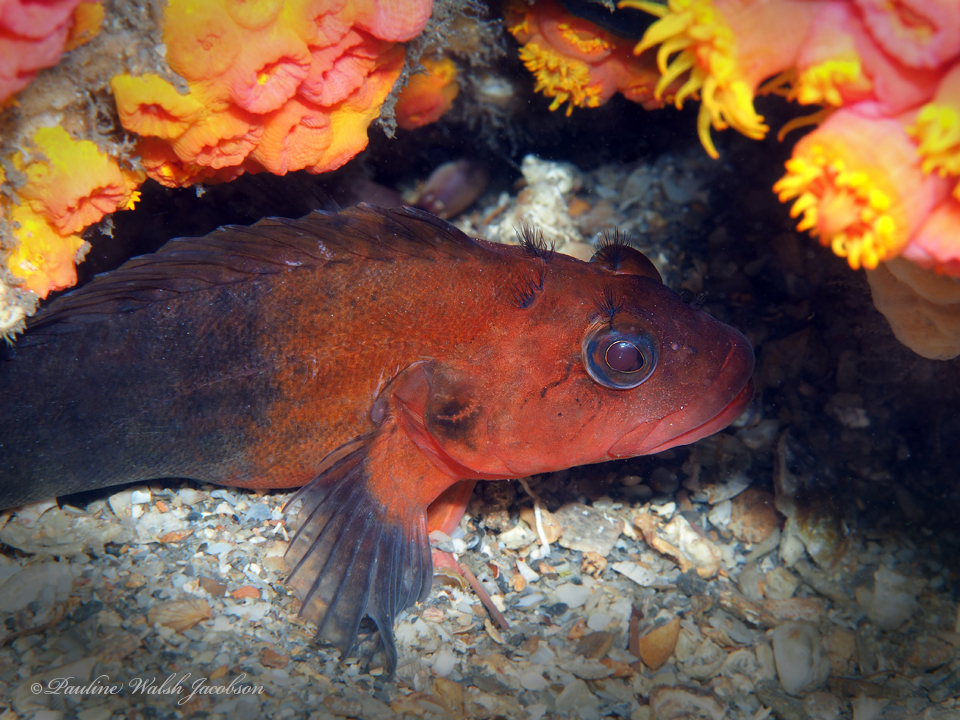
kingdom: Animalia
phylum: Chordata
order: Perciformes
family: Labrisomidae
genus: Labrisomus
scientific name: Labrisomus conditus
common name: Masquerader hairy blenny
